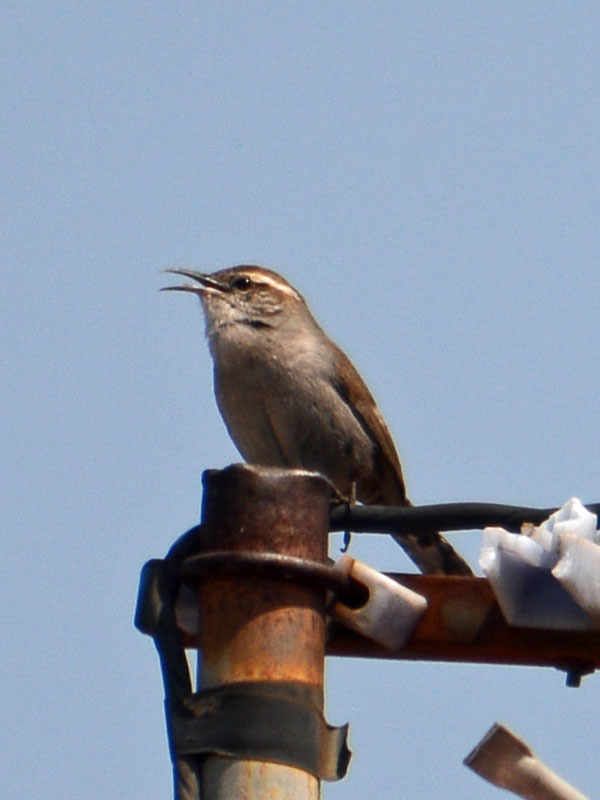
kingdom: Animalia
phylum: Chordata
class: Aves
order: Passeriformes
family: Troglodytidae
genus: Thryomanes
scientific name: Thryomanes bewickii
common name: Bewick's wren
